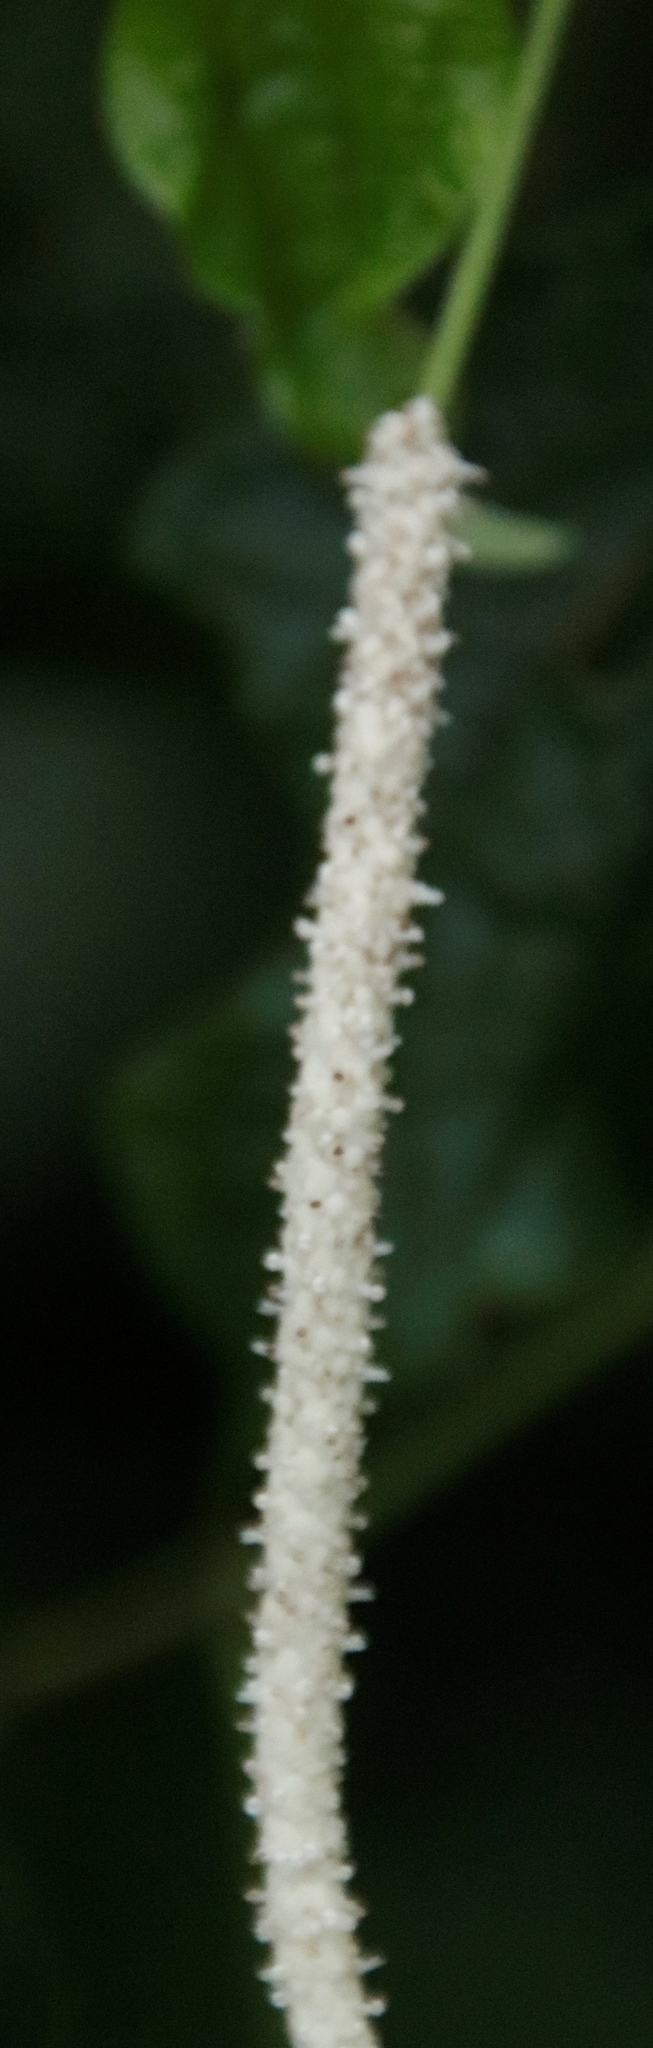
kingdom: Plantae
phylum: Tracheophyta
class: Magnoliopsida
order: Piperales
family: Piperaceae
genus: Piper
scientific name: Piper capense
